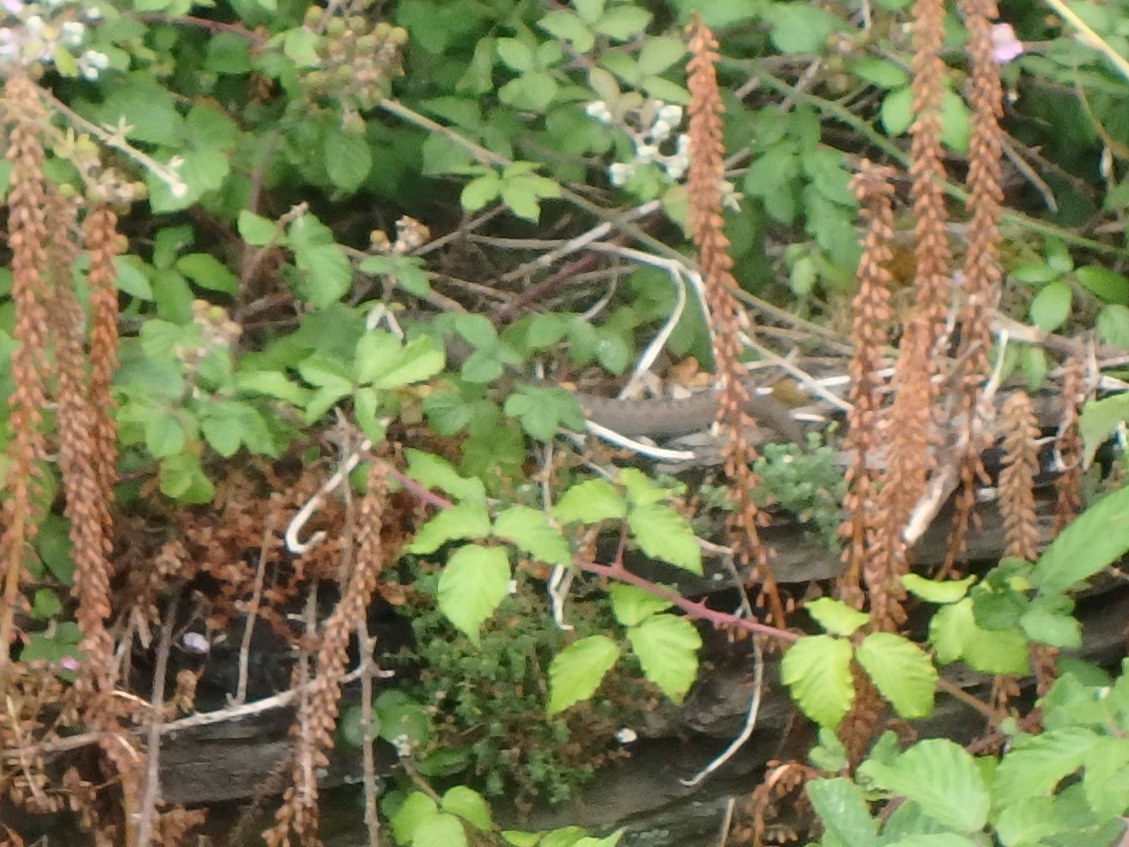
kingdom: Animalia
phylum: Chordata
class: Squamata
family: Viperidae
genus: Vipera
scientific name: Vipera berus
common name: Adder
